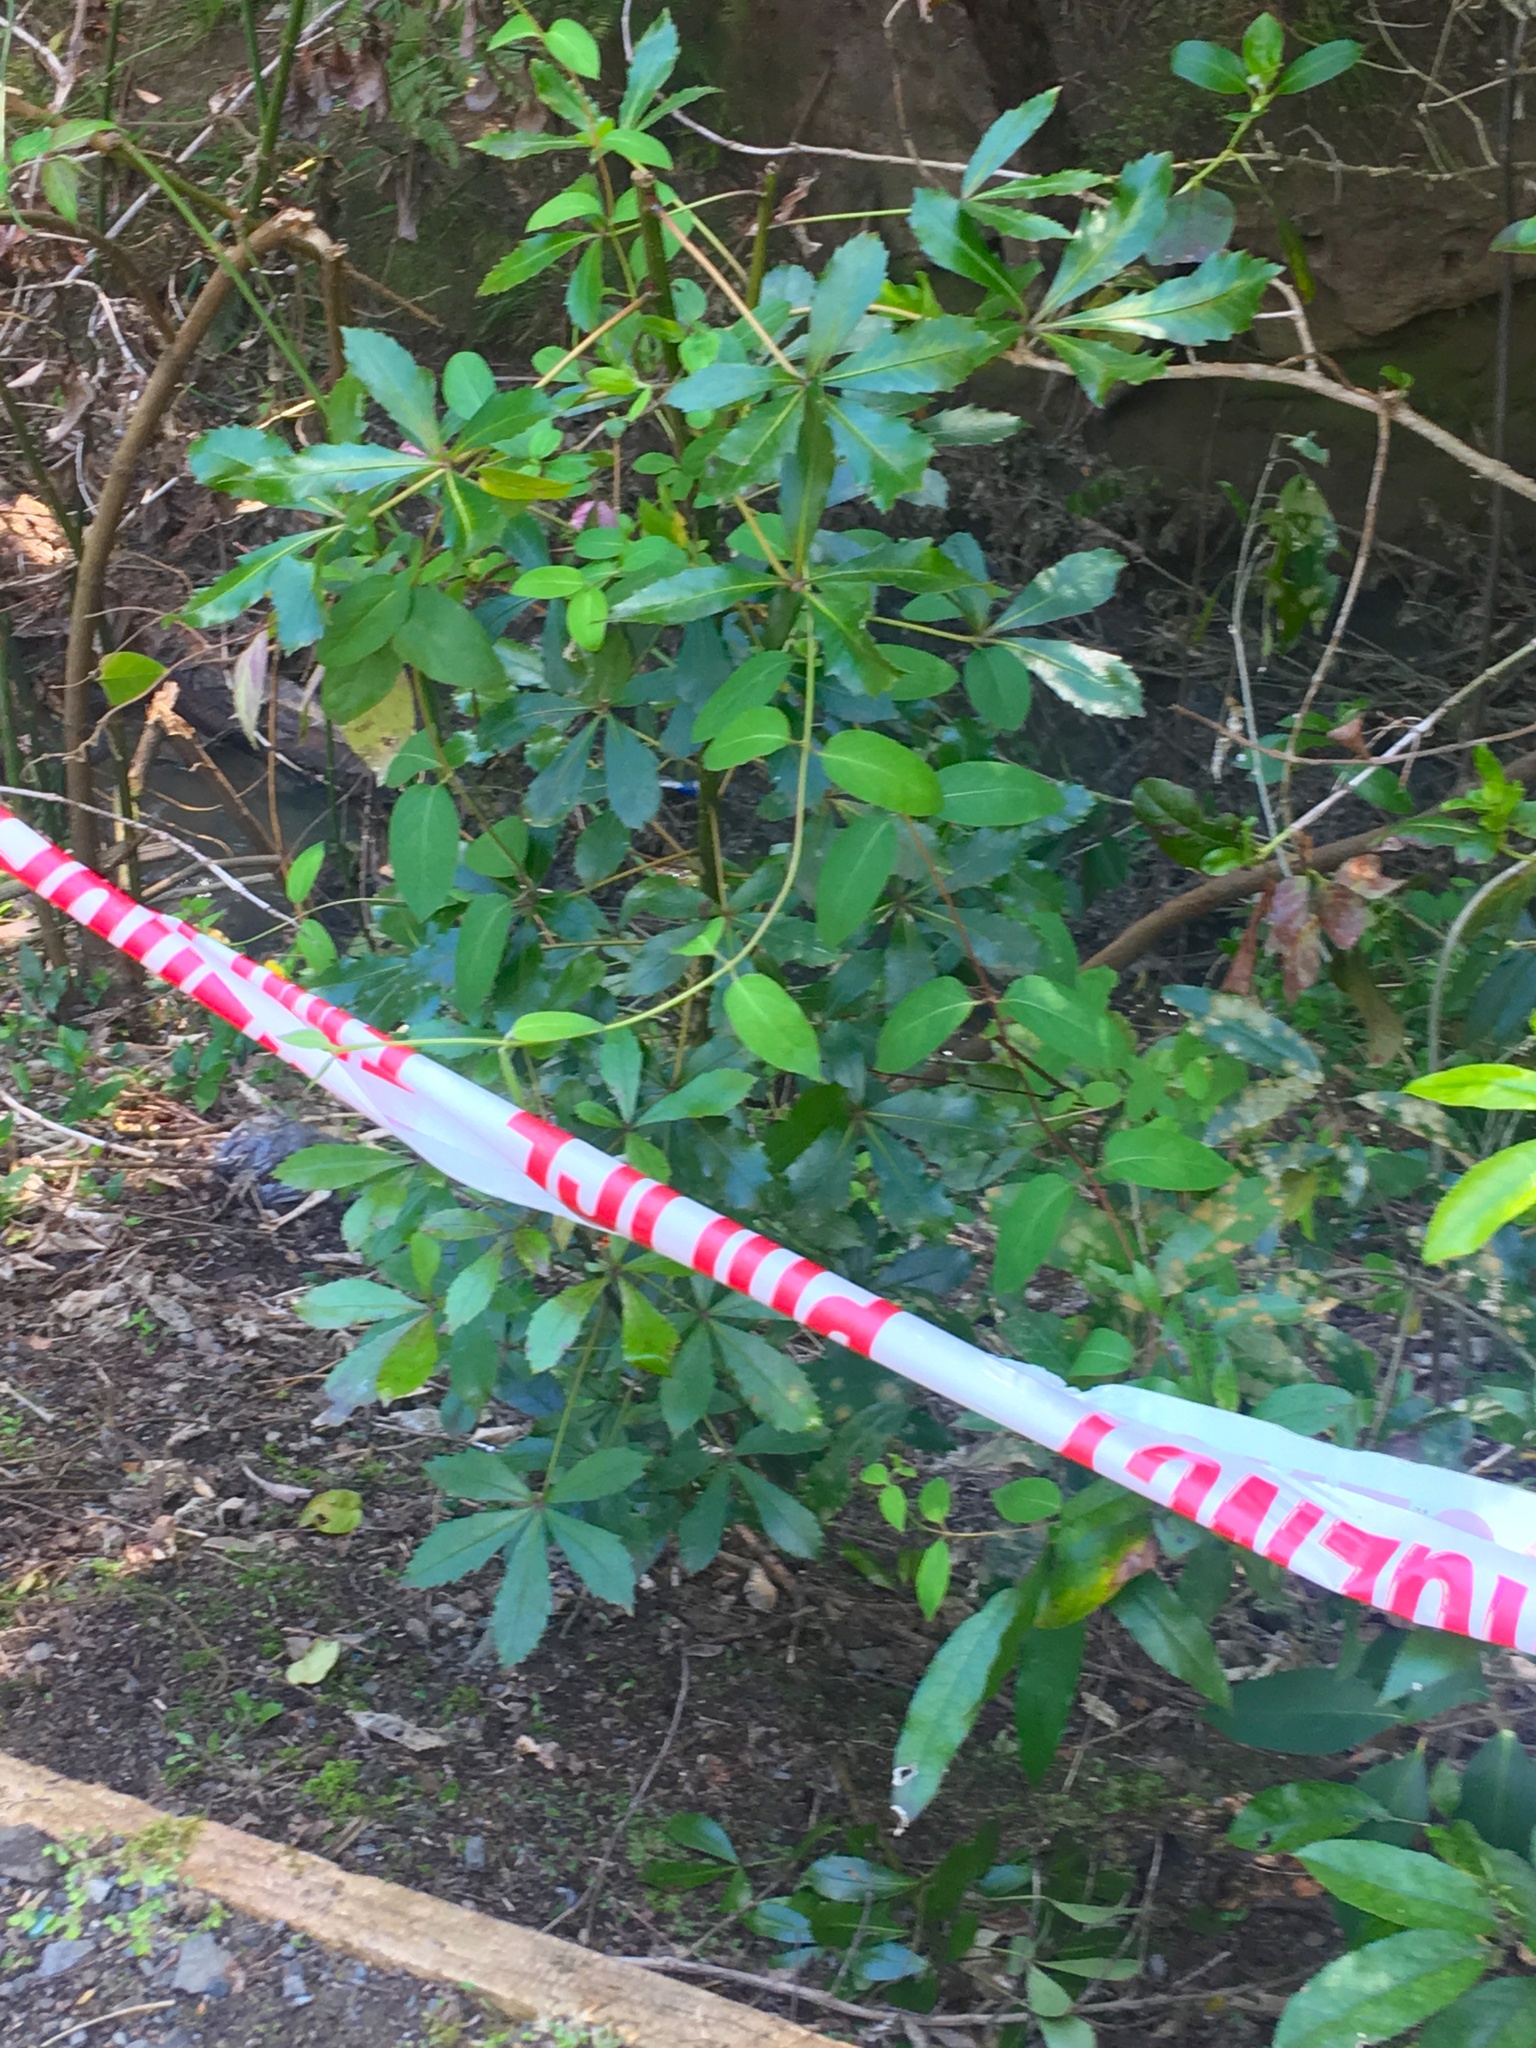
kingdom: Plantae
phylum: Tracheophyta
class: Magnoliopsida
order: Apiales
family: Araliaceae
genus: Pseudopanax
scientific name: Pseudopanax lessonii
